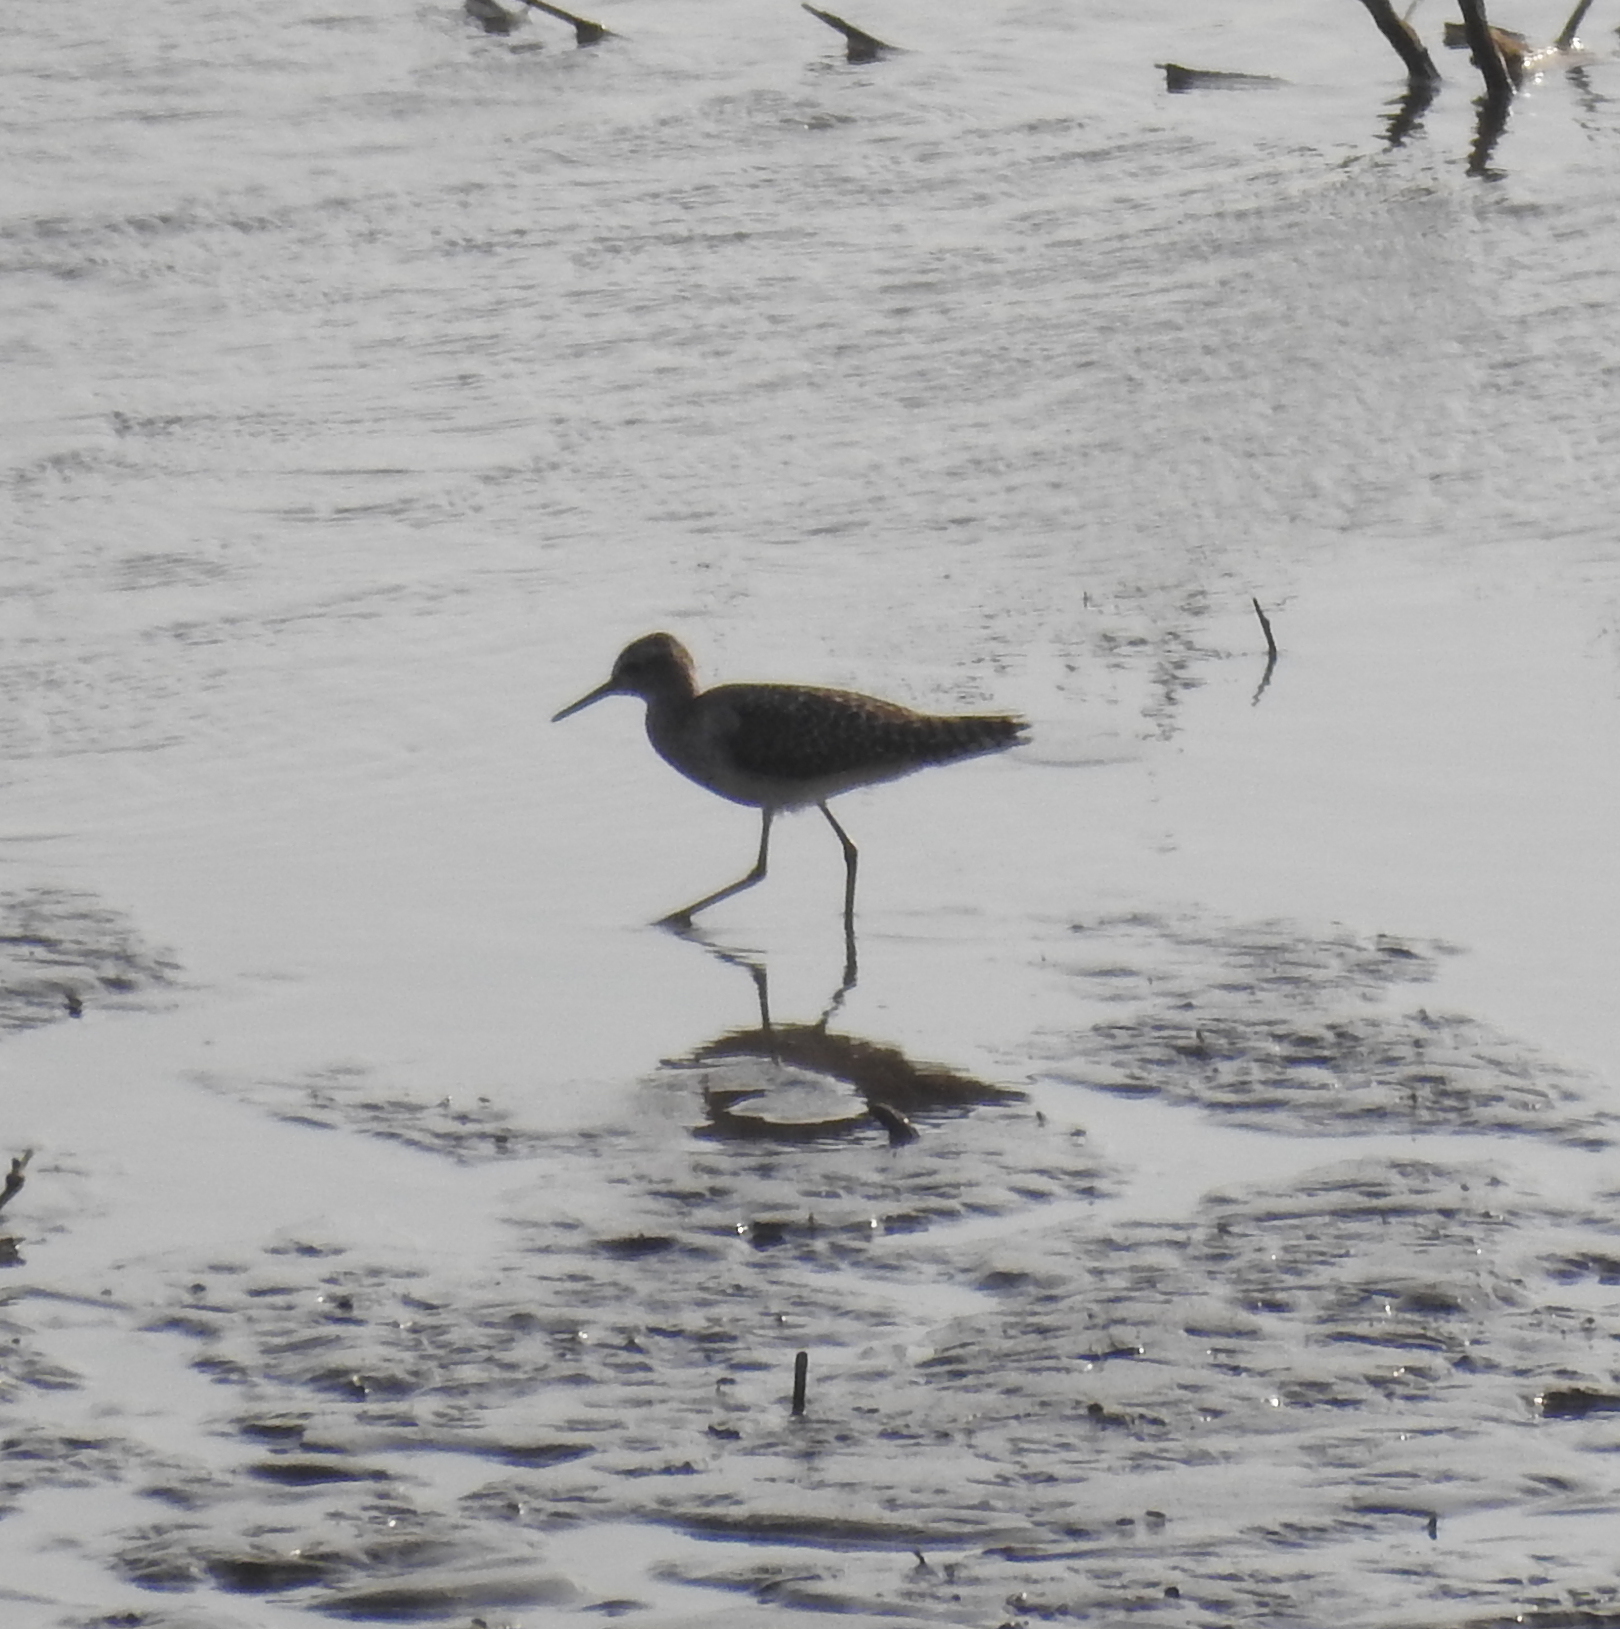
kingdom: Animalia
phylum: Chordata
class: Aves
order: Charadriiformes
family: Scolopacidae
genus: Tringa
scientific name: Tringa glareola
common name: Wood sandpiper
